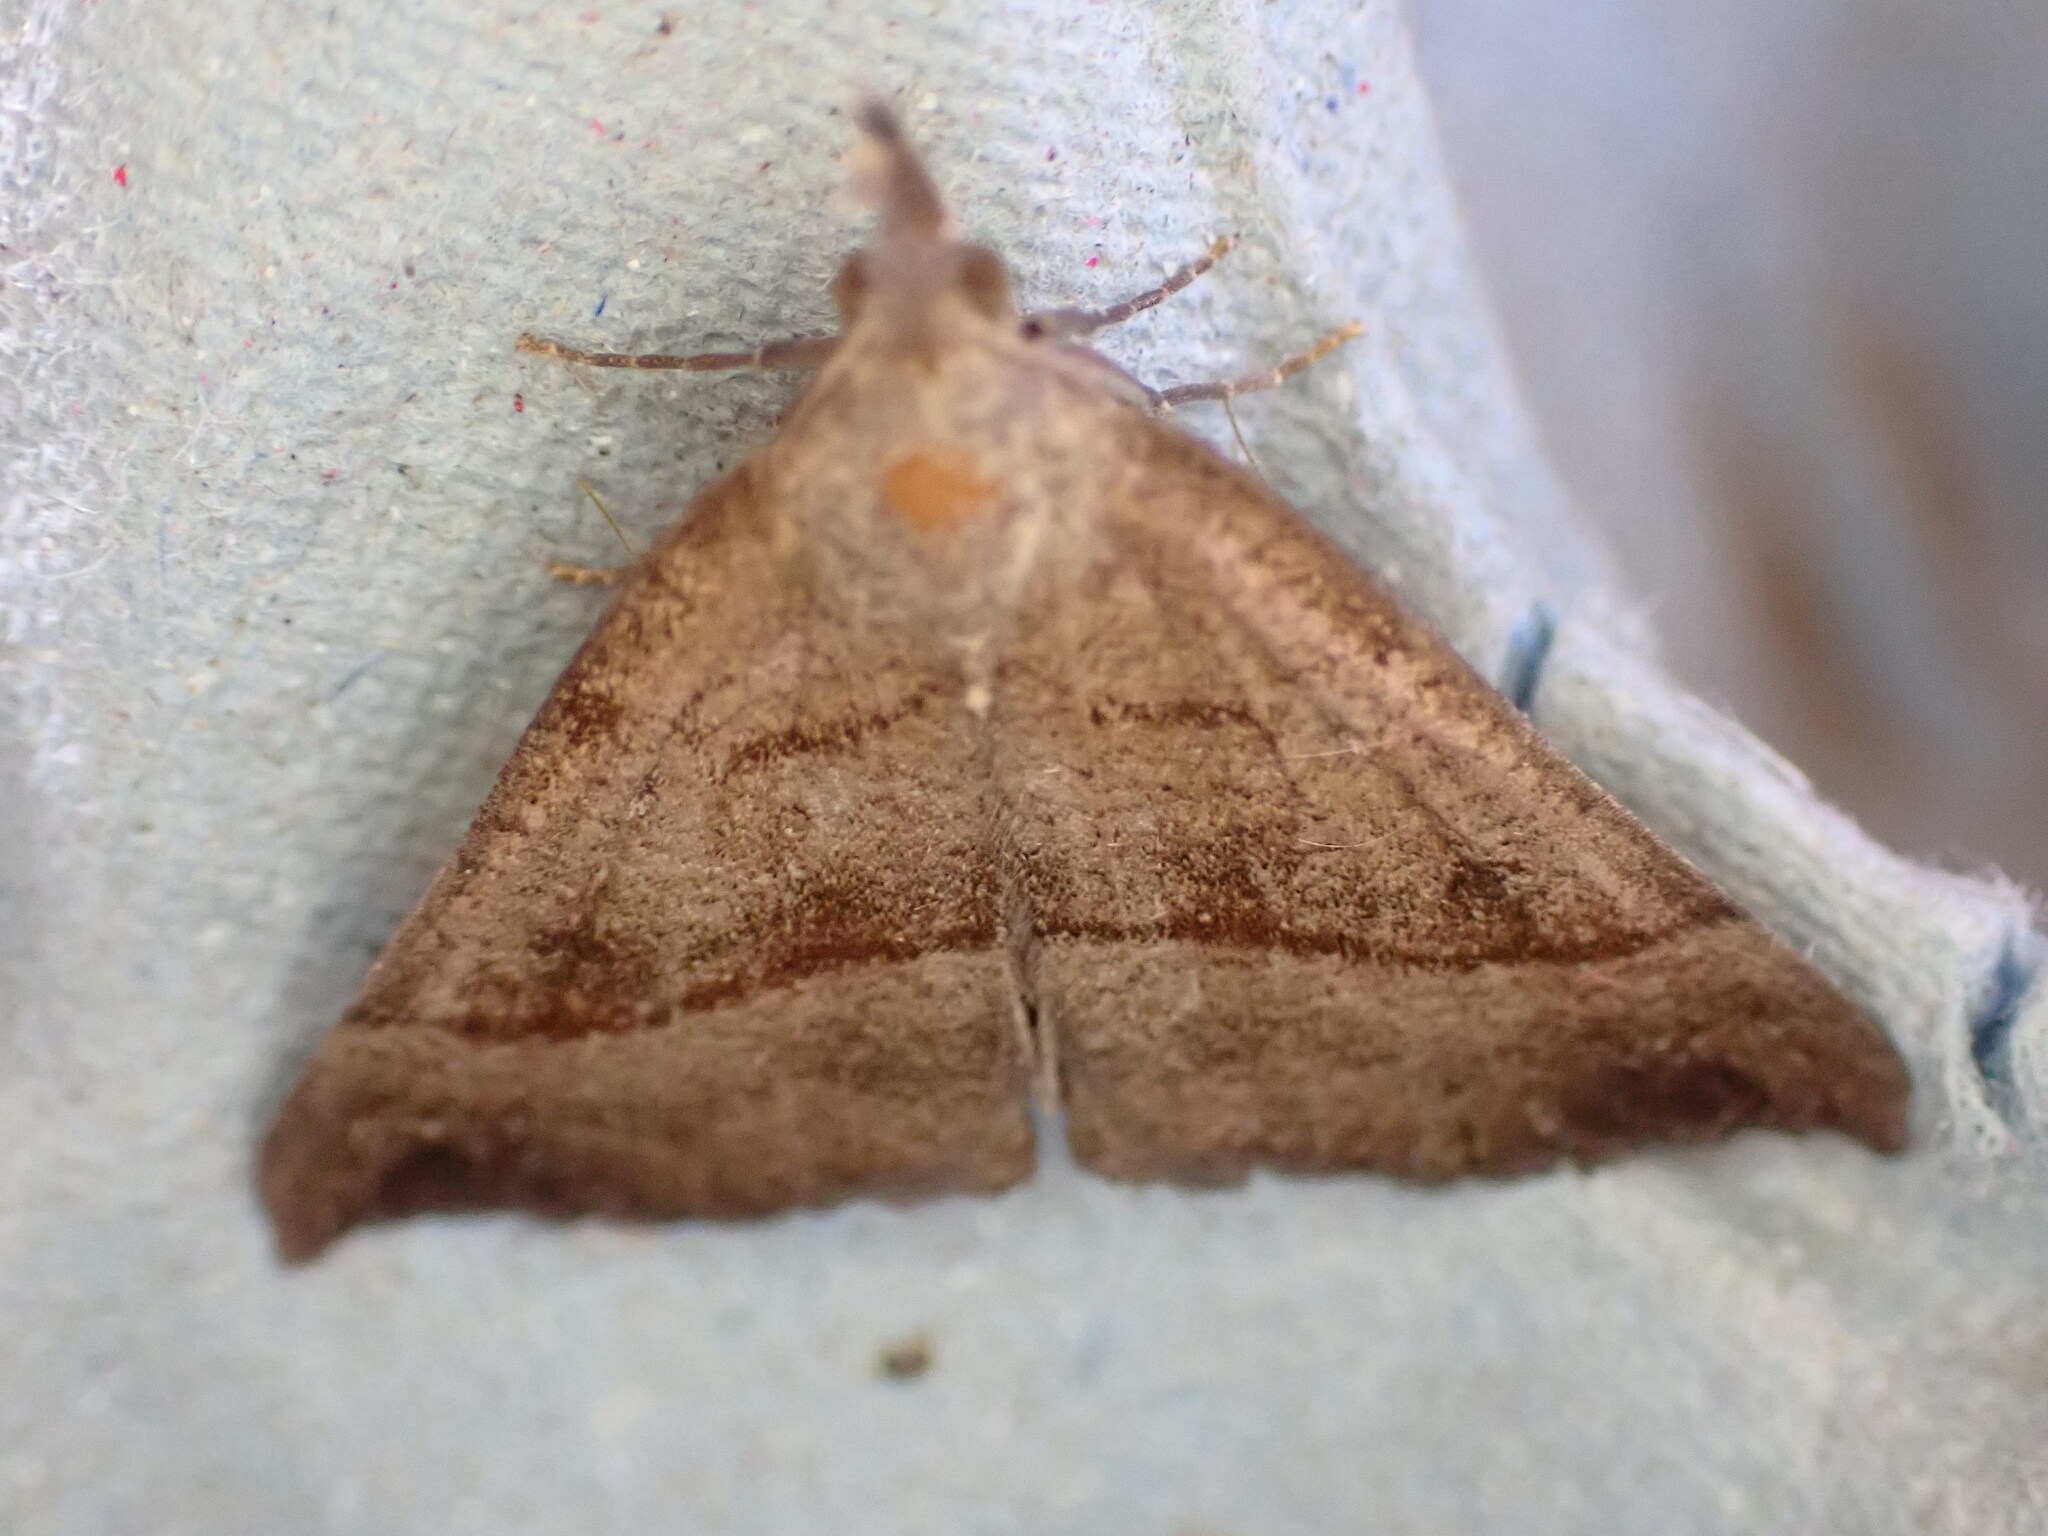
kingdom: Animalia
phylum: Arthropoda
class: Insecta
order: Lepidoptera
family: Erebidae
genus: Hypena
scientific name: Hypena proboscidalis
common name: Snout
